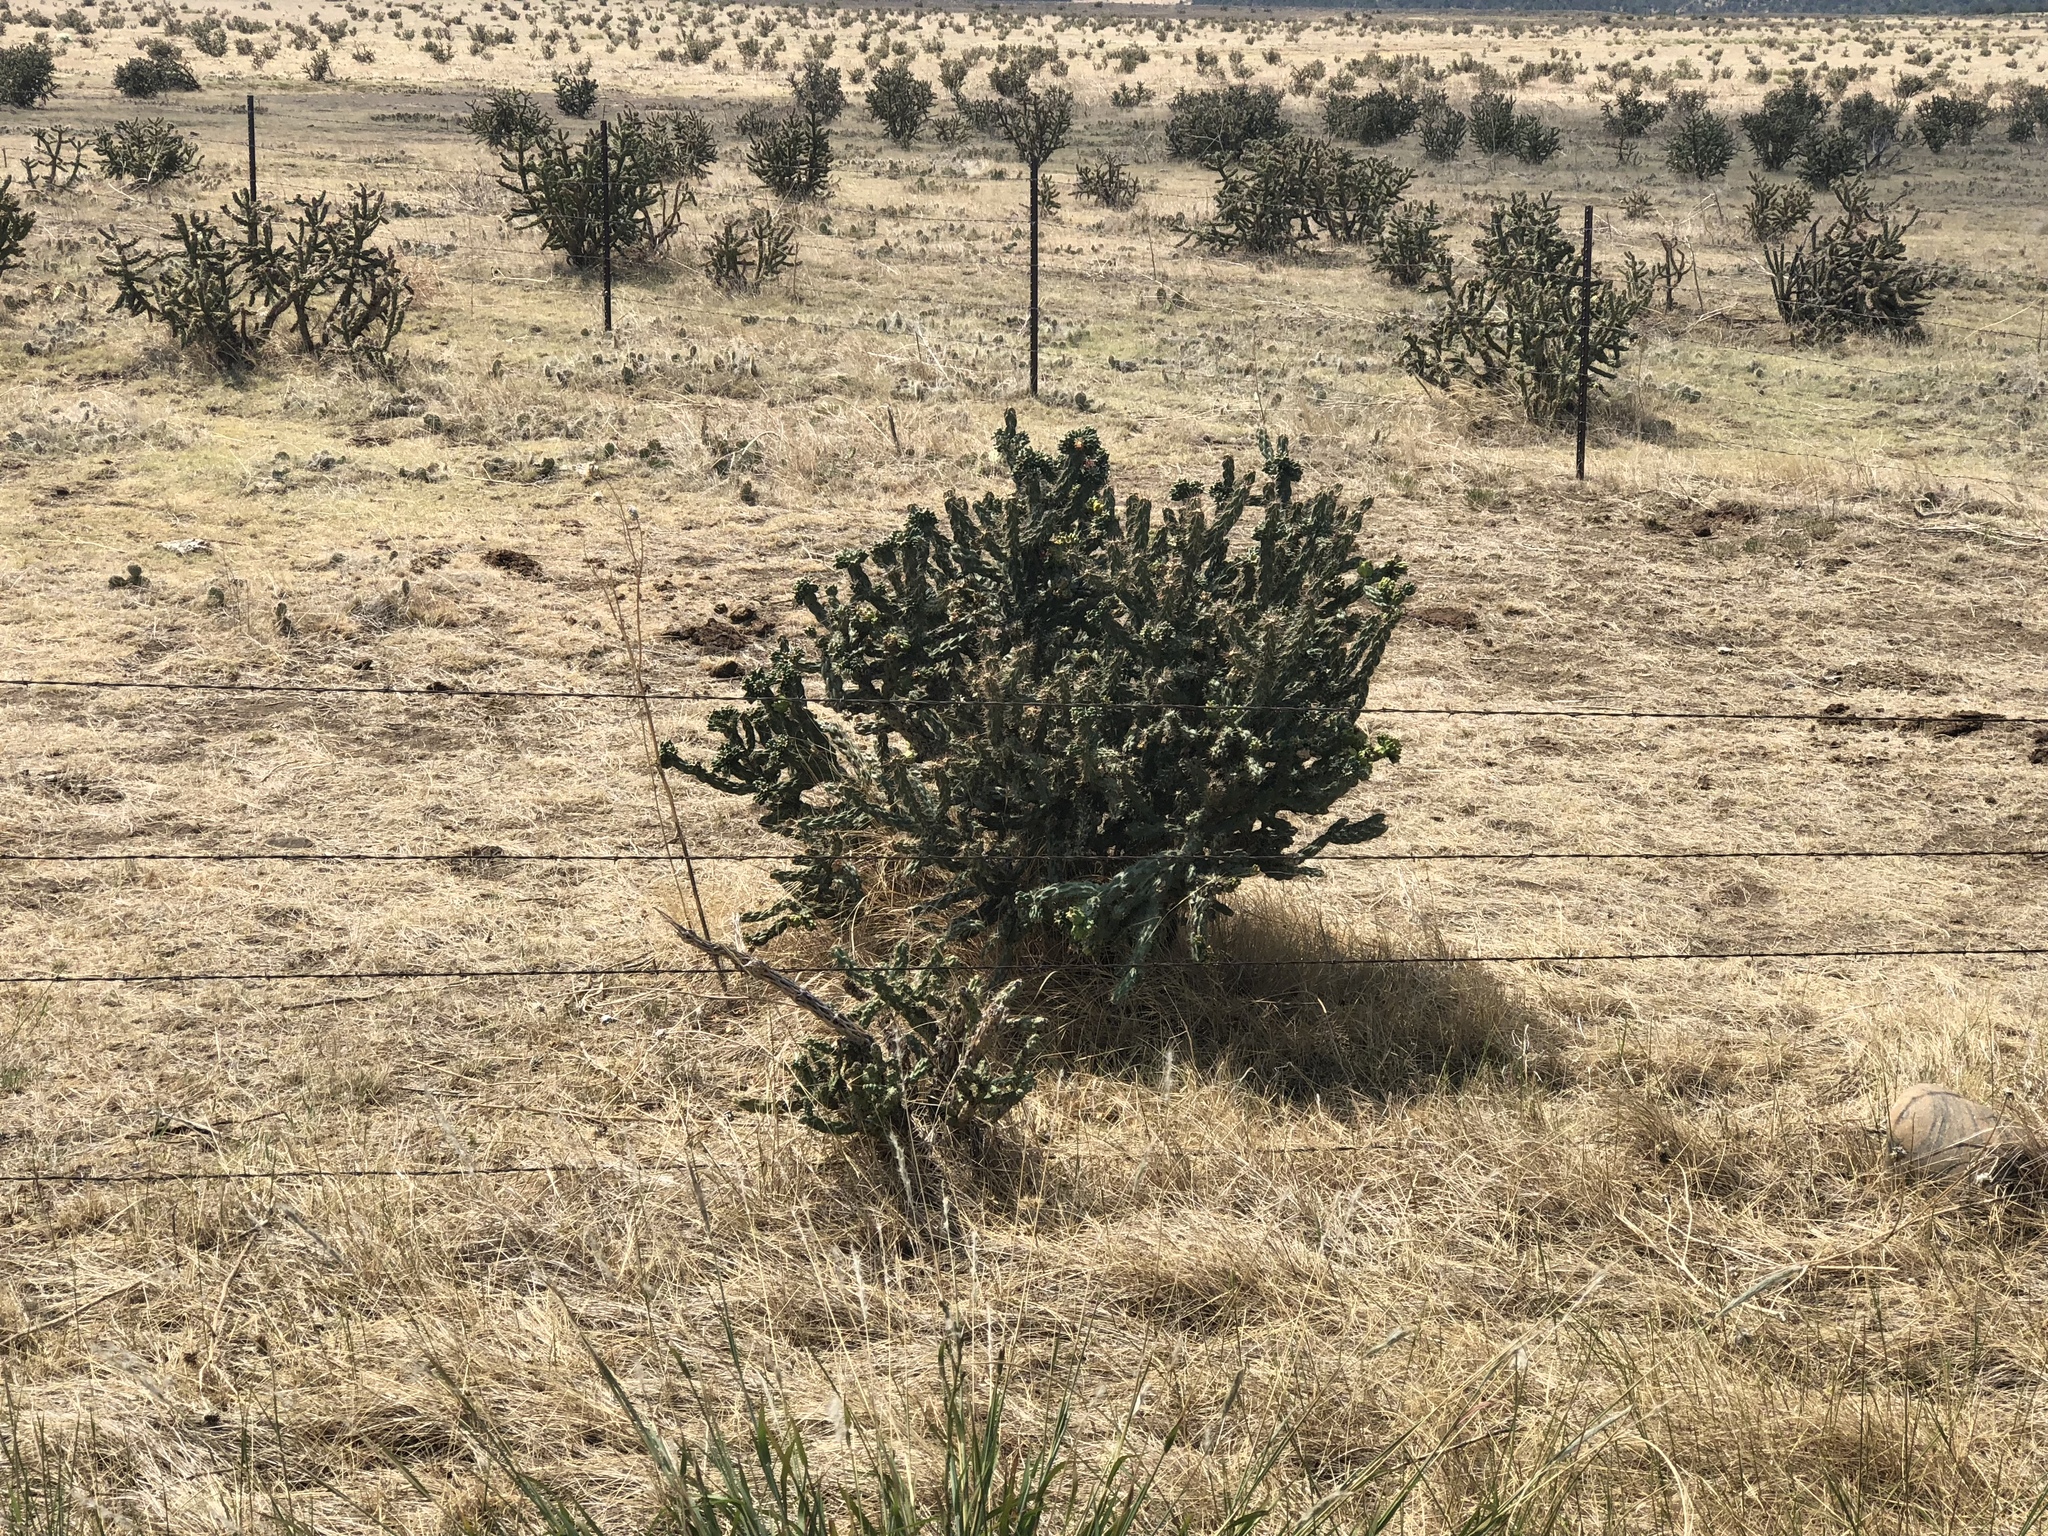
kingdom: Plantae
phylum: Tracheophyta
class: Magnoliopsida
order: Caryophyllales
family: Cactaceae
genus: Cylindropuntia
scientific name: Cylindropuntia imbricata
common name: Candelabrum cactus
